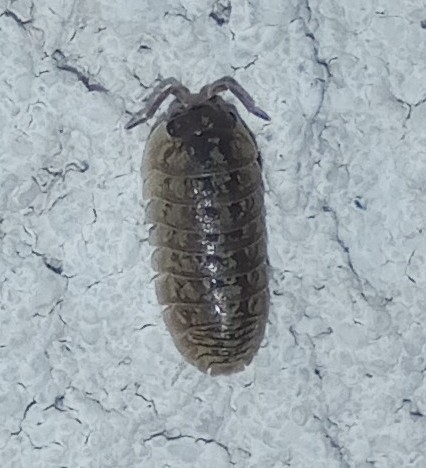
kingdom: Animalia
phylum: Arthropoda
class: Malacostraca
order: Isopoda
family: Armadillidiidae
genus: Armadillidium
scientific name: Armadillidium versicolor
